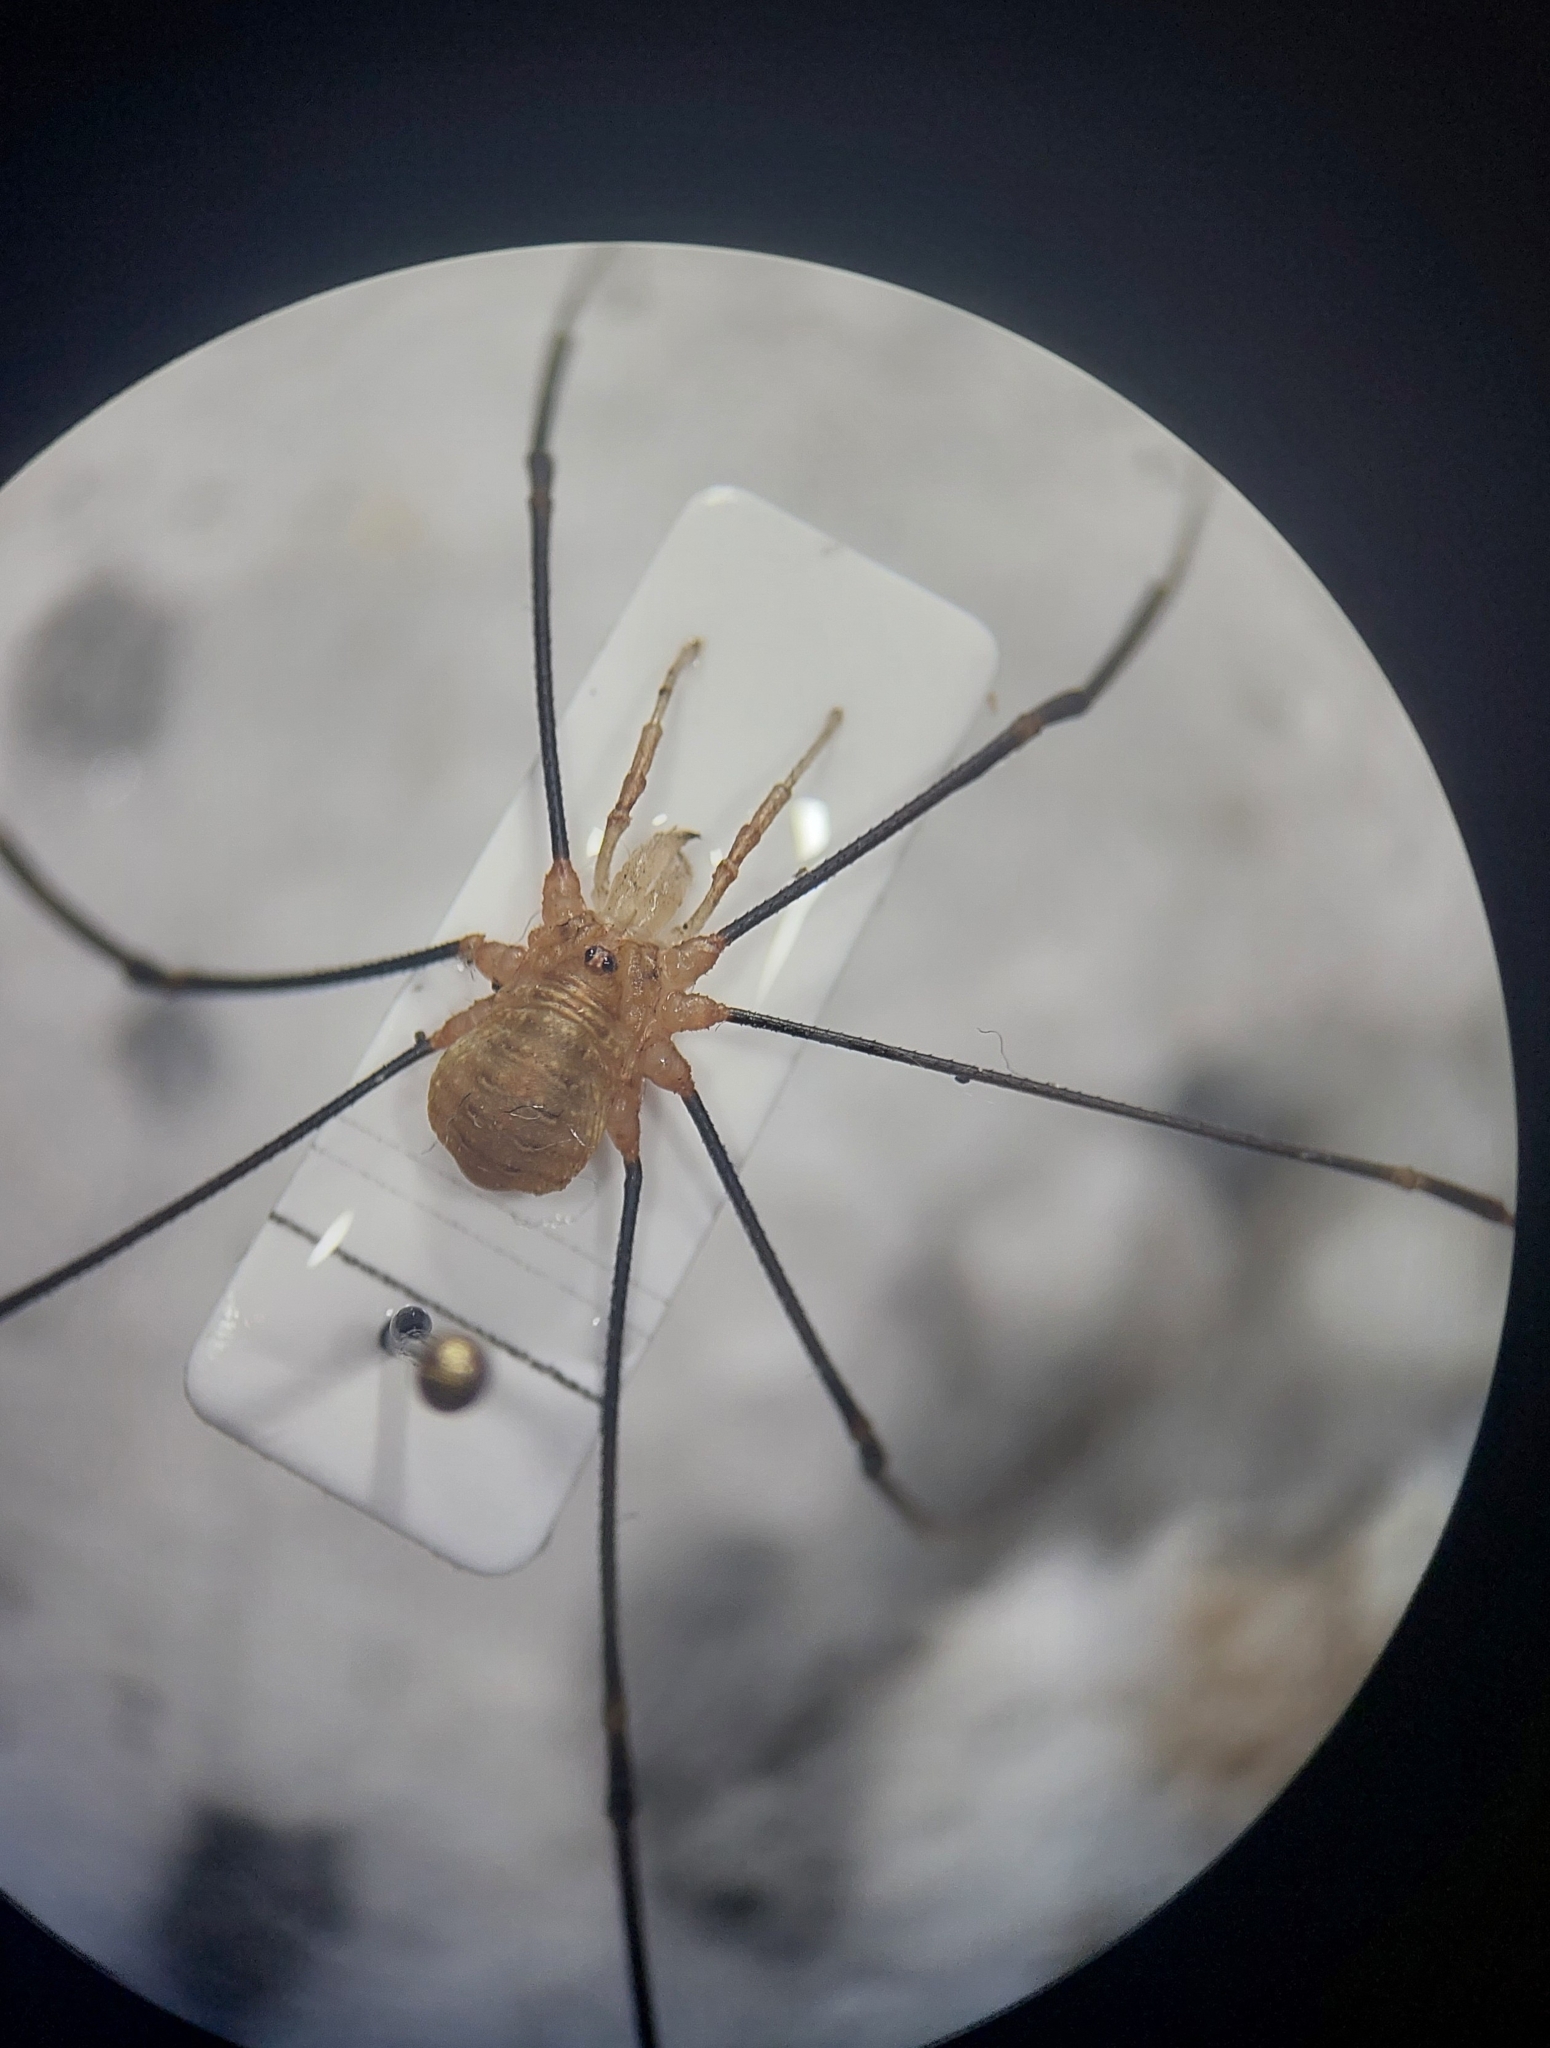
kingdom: Animalia
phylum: Arthropoda
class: Arachnida
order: Opiliones
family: Phalangiidae
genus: Opilio
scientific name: Opilio canestrinii
